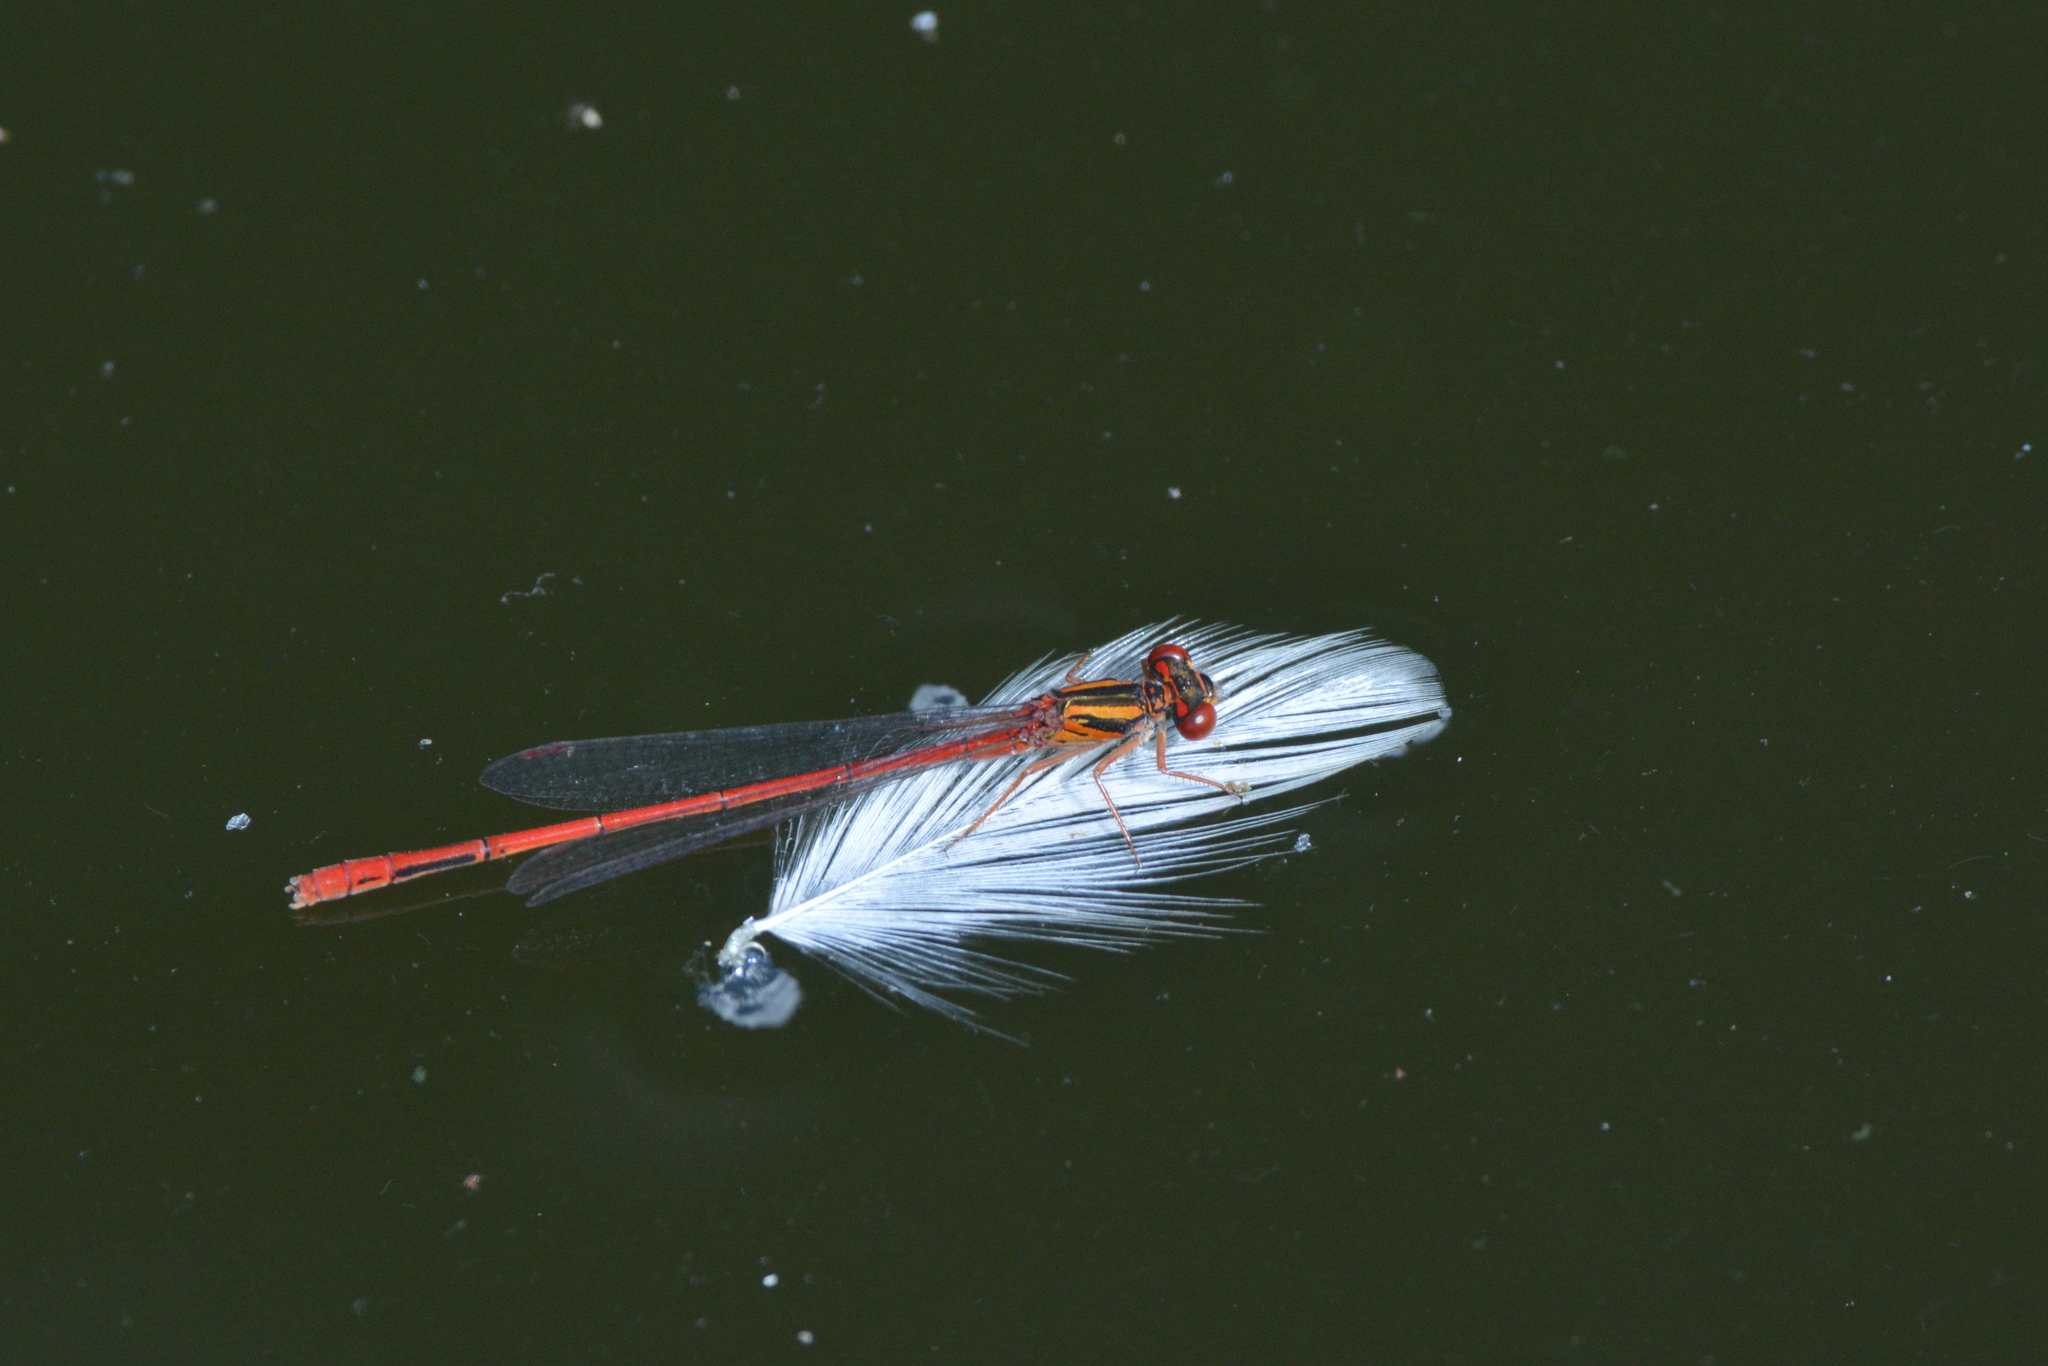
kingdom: Animalia
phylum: Arthropoda
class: Insecta
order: Odonata
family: Coenagrionidae
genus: Xanthocnemis
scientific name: Xanthocnemis zealandica
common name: Common redcoat damselfly
